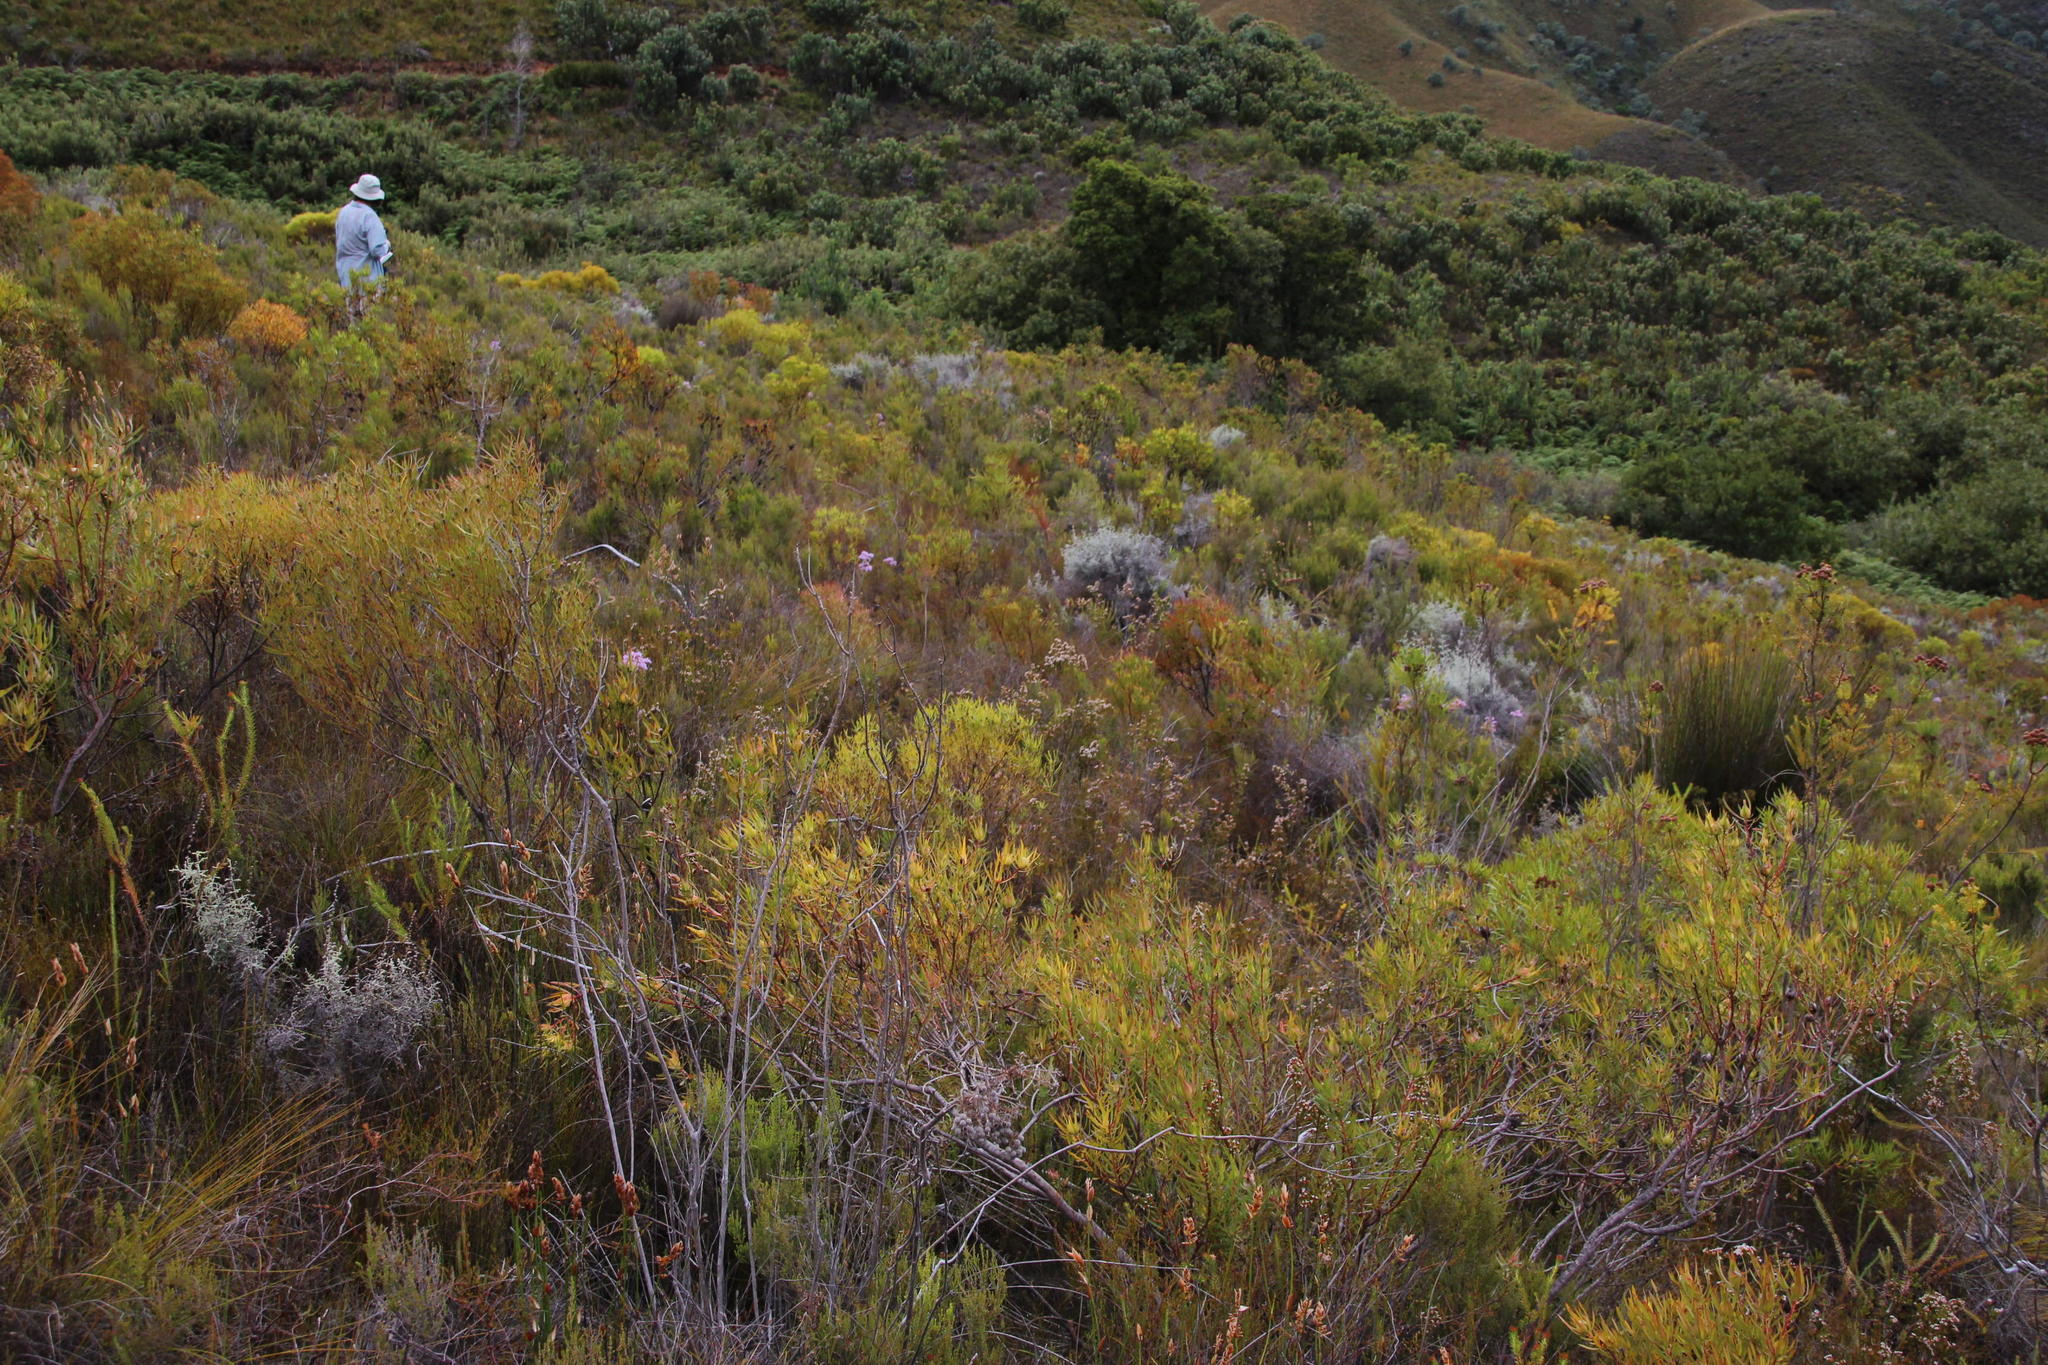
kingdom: Plantae
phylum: Tracheophyta
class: Magnoliopsida
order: Proteales
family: Proteaceae
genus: Leucadendron
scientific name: Leucadendron salignum
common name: Common sunshine conebush
